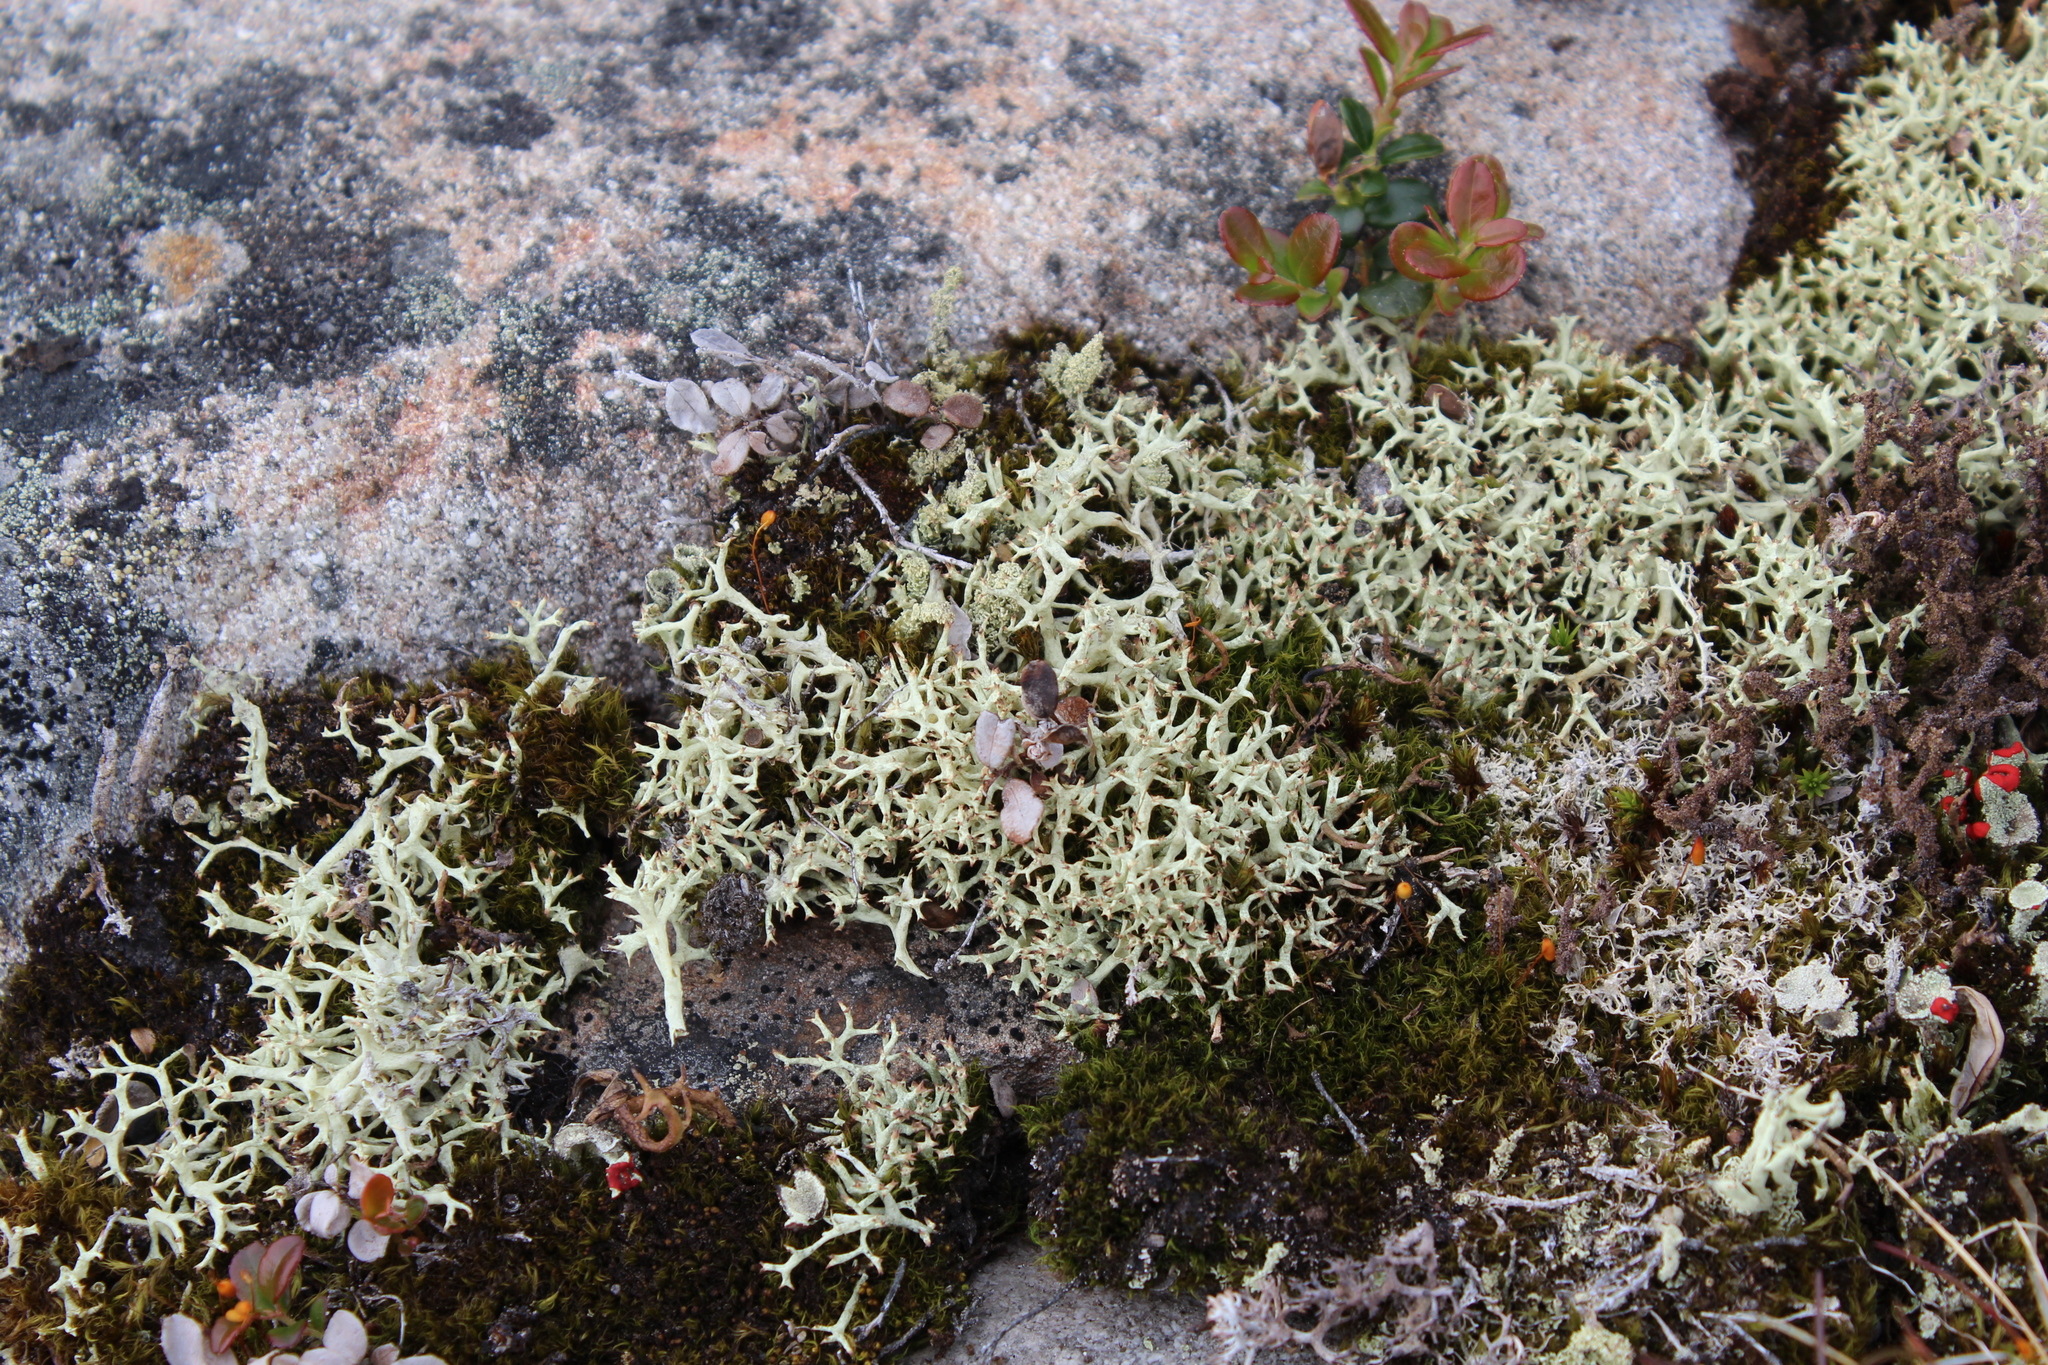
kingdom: Fungi
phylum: Ascomycota
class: Lecanoromycetes
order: Lecanorales
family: Cladoniaceae
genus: Cladonia
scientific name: Cladonia uncialis
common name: Thorn lichen
